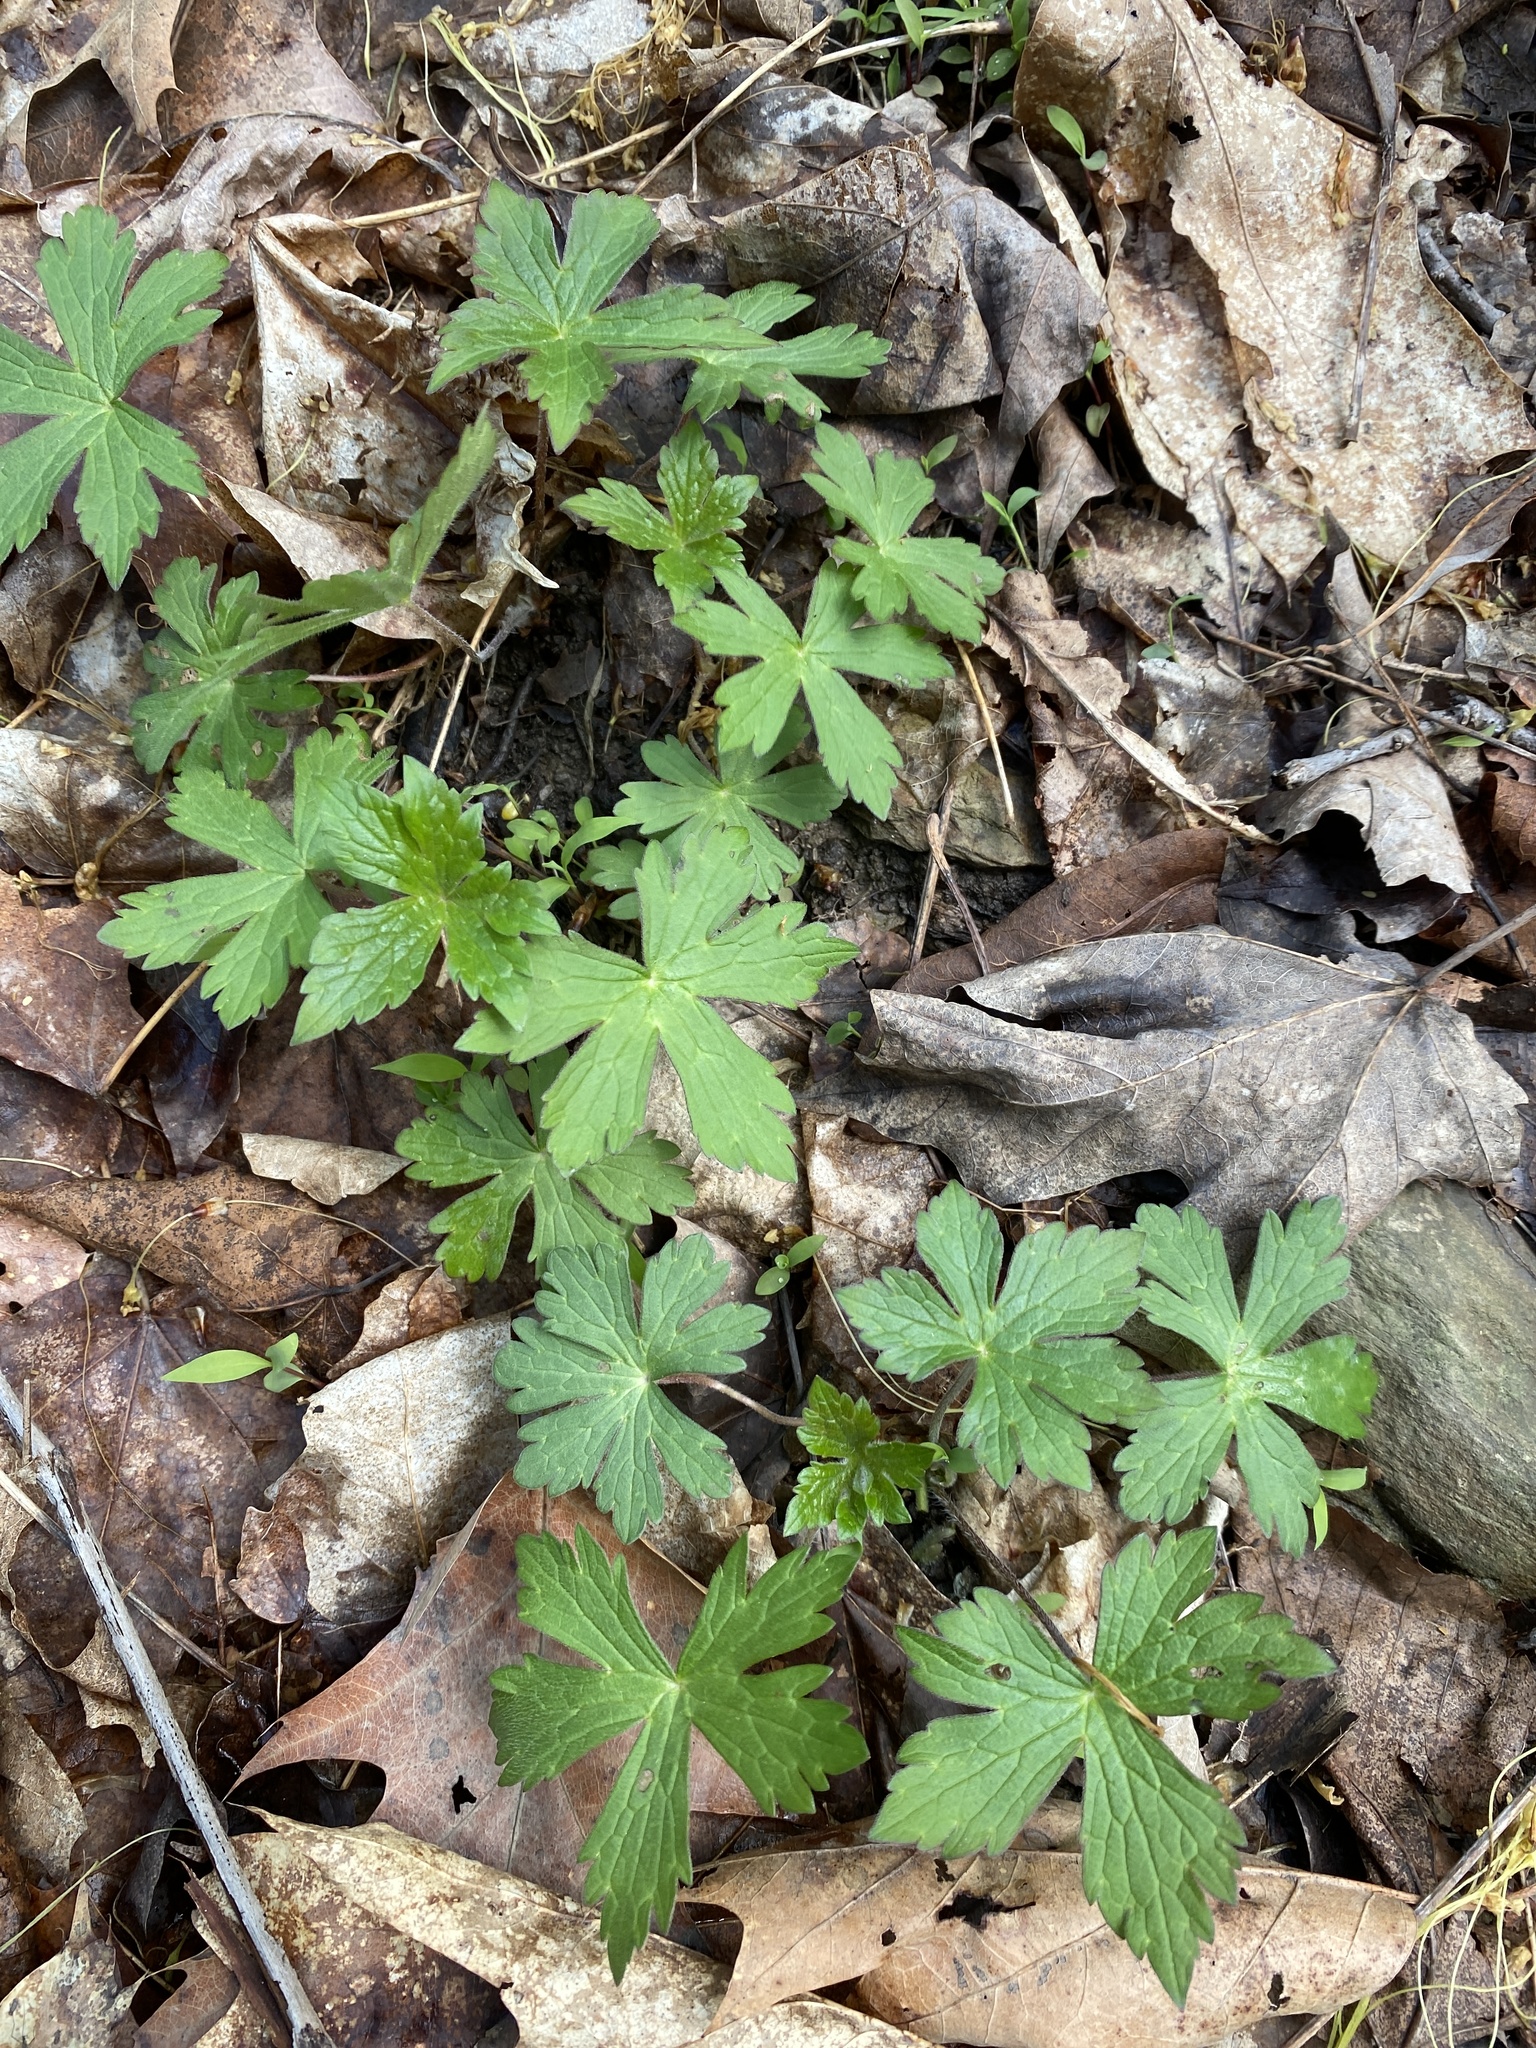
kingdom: Plantae
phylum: Tracheophyta
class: Magnoliopsida
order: Geraniales
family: Geraniaceae
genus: Geranium
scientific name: Geranium maculatum
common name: Spotted geranium
